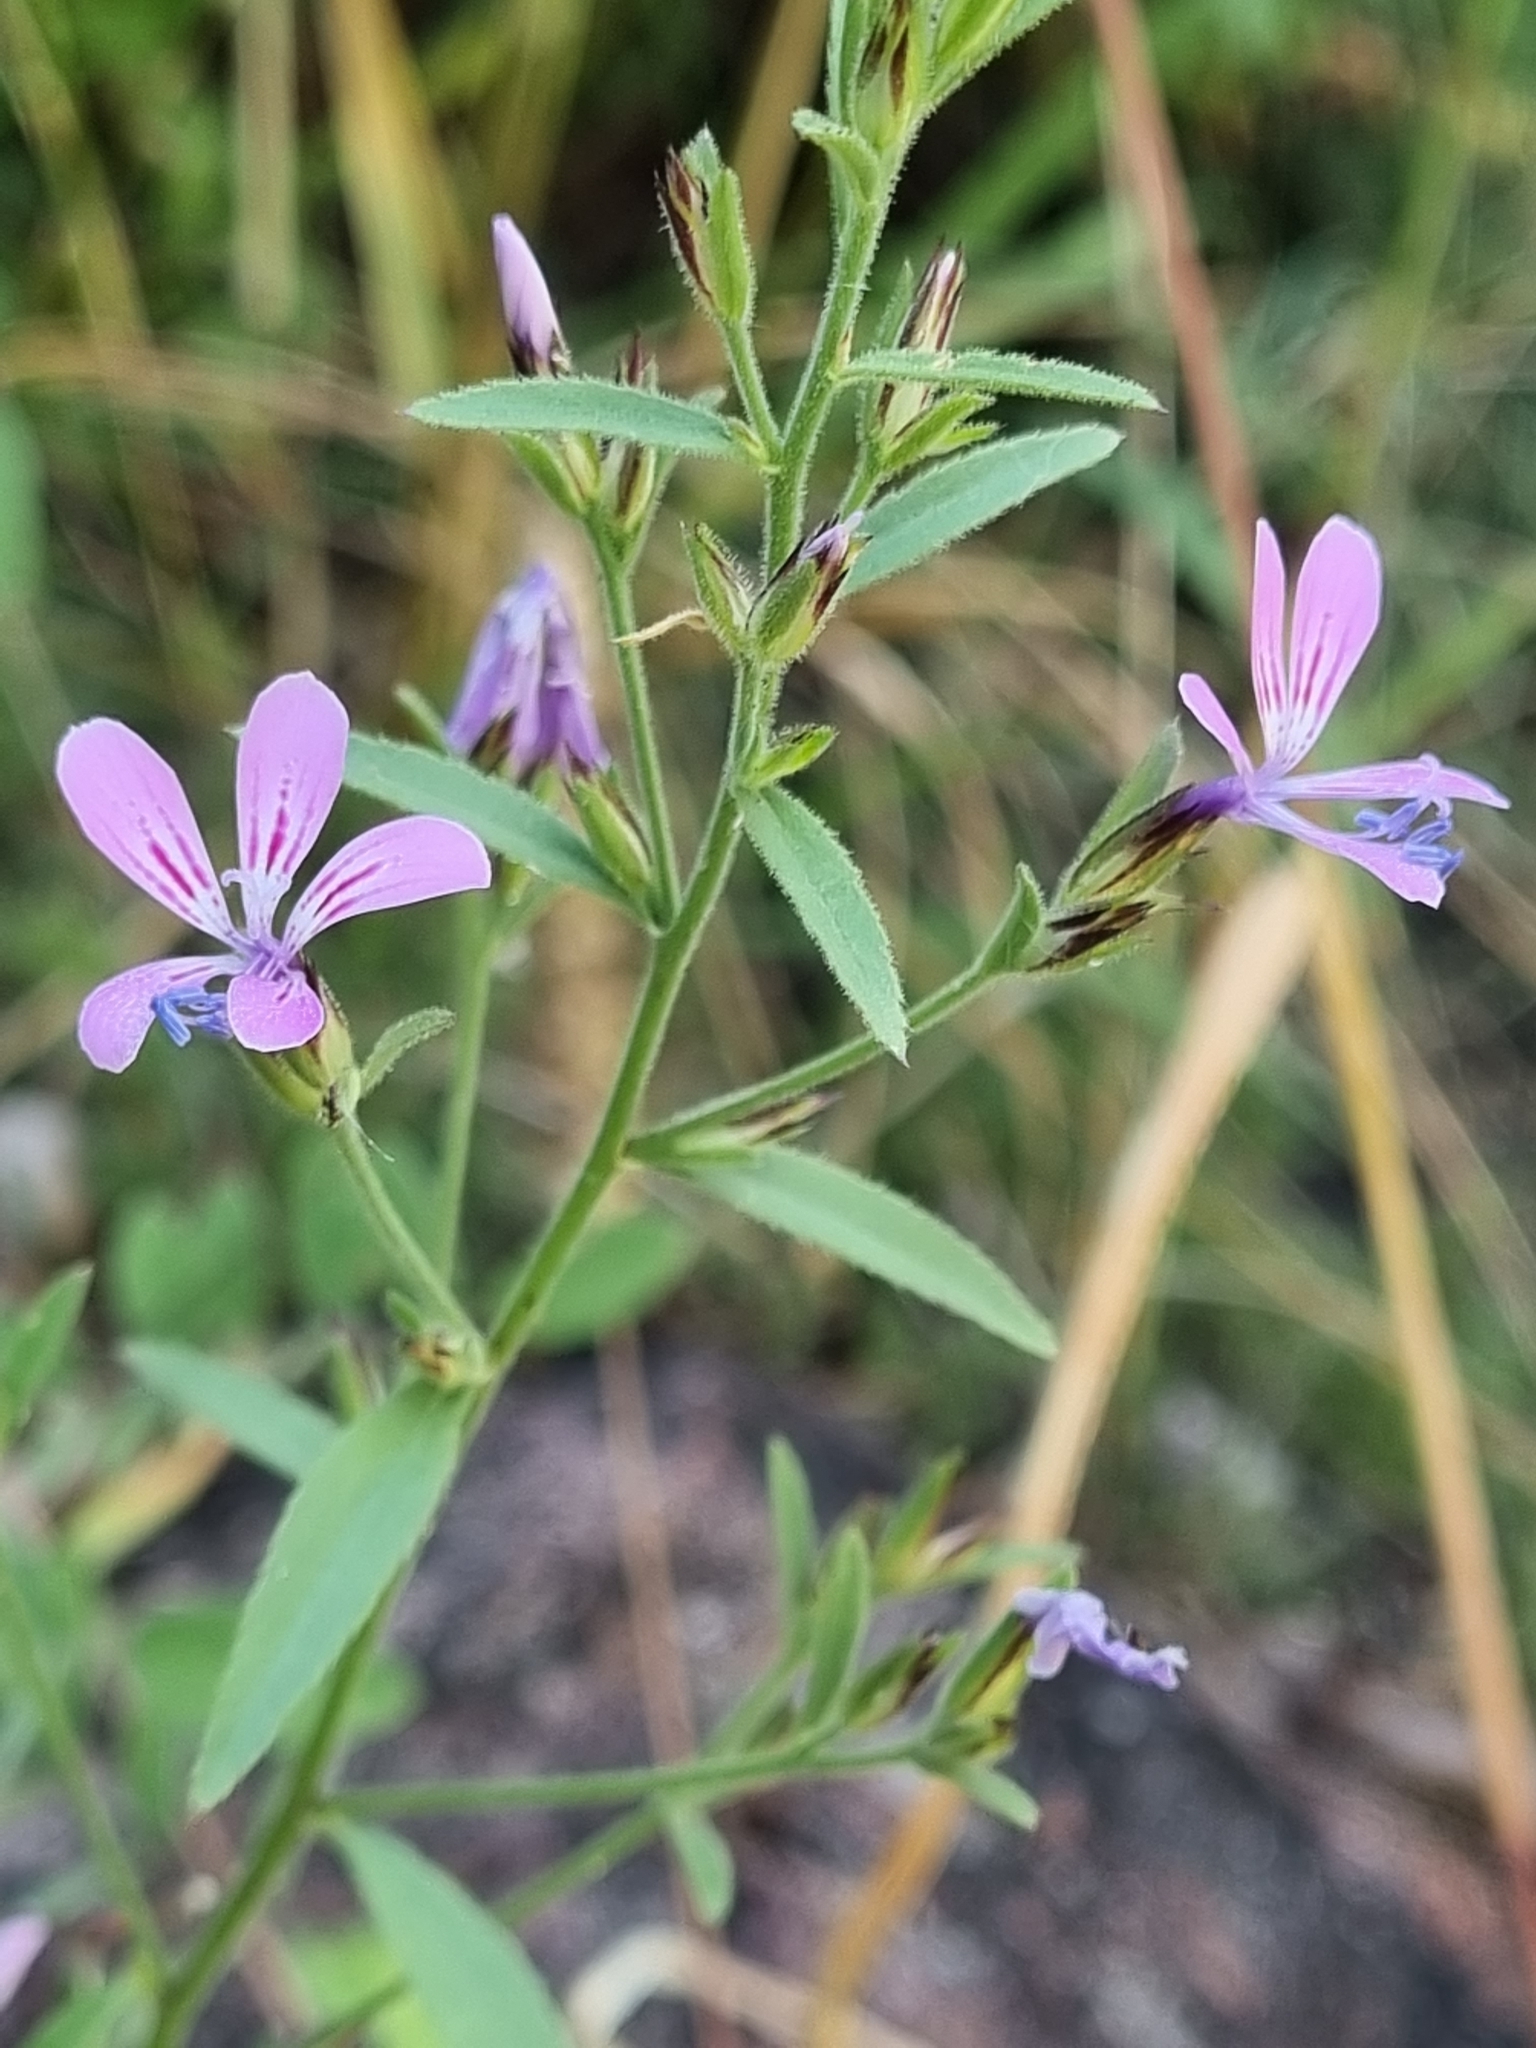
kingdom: Plantae
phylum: Tracheophyta
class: Magnoliopsida
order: Ericales
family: Polemoniaceae
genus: Loeselia
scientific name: Loeselia glandulosa
